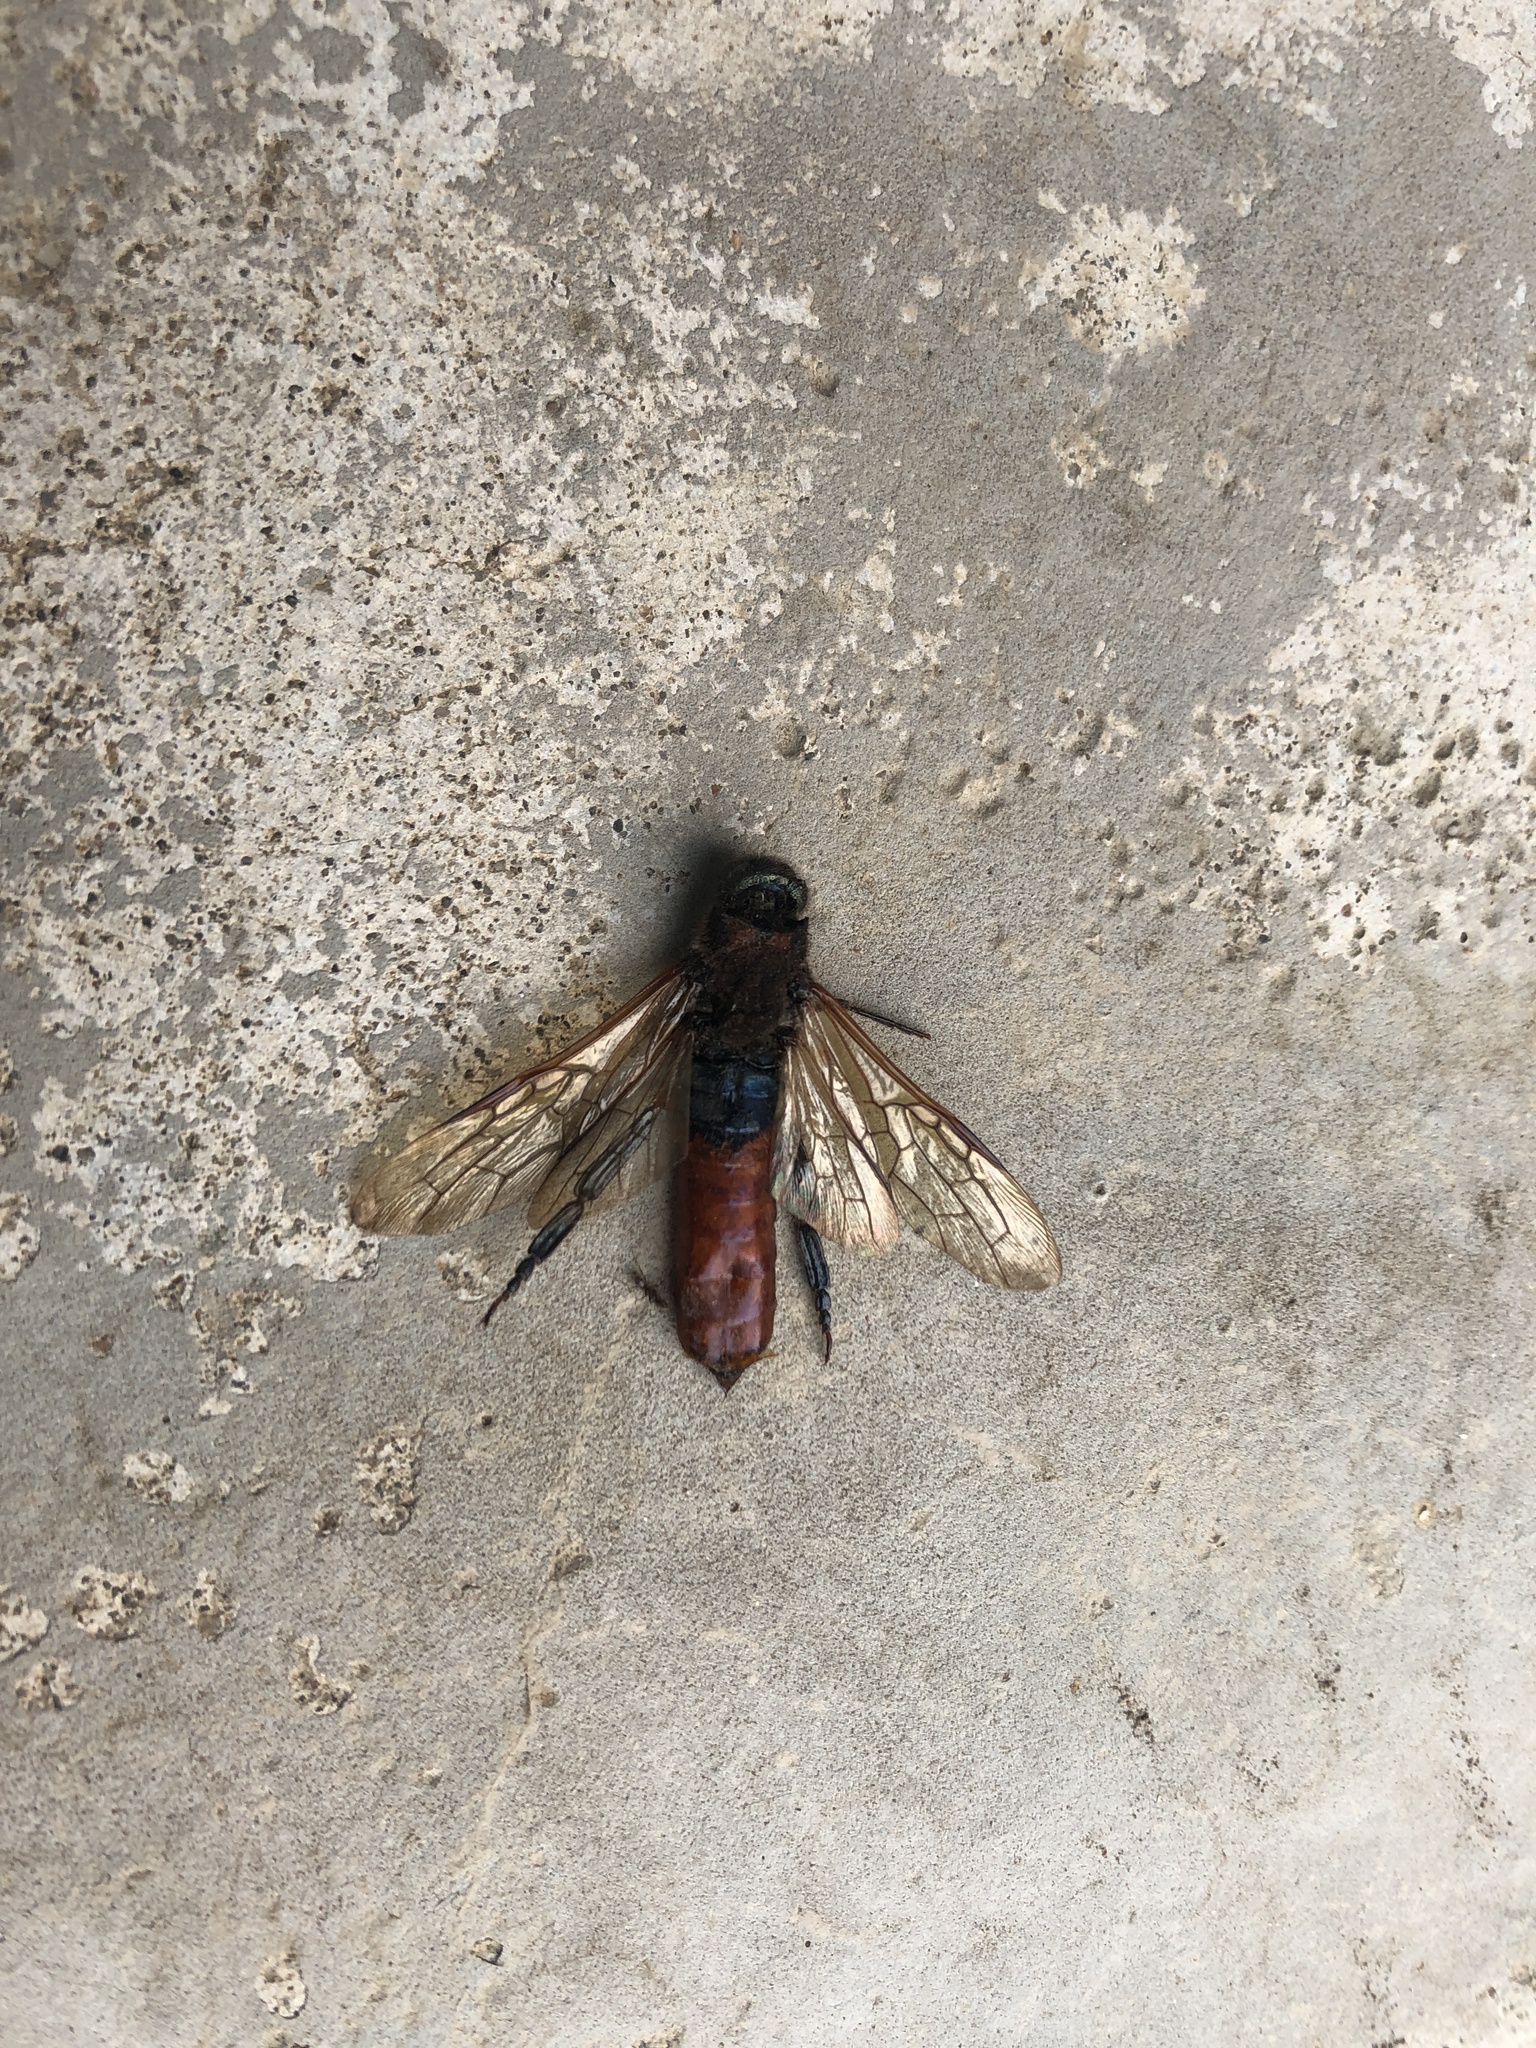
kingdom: Animalia
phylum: Arthropoda
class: Insecta
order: Hymenoptera
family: Siricidae
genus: Sirex
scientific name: Sirex varipes
